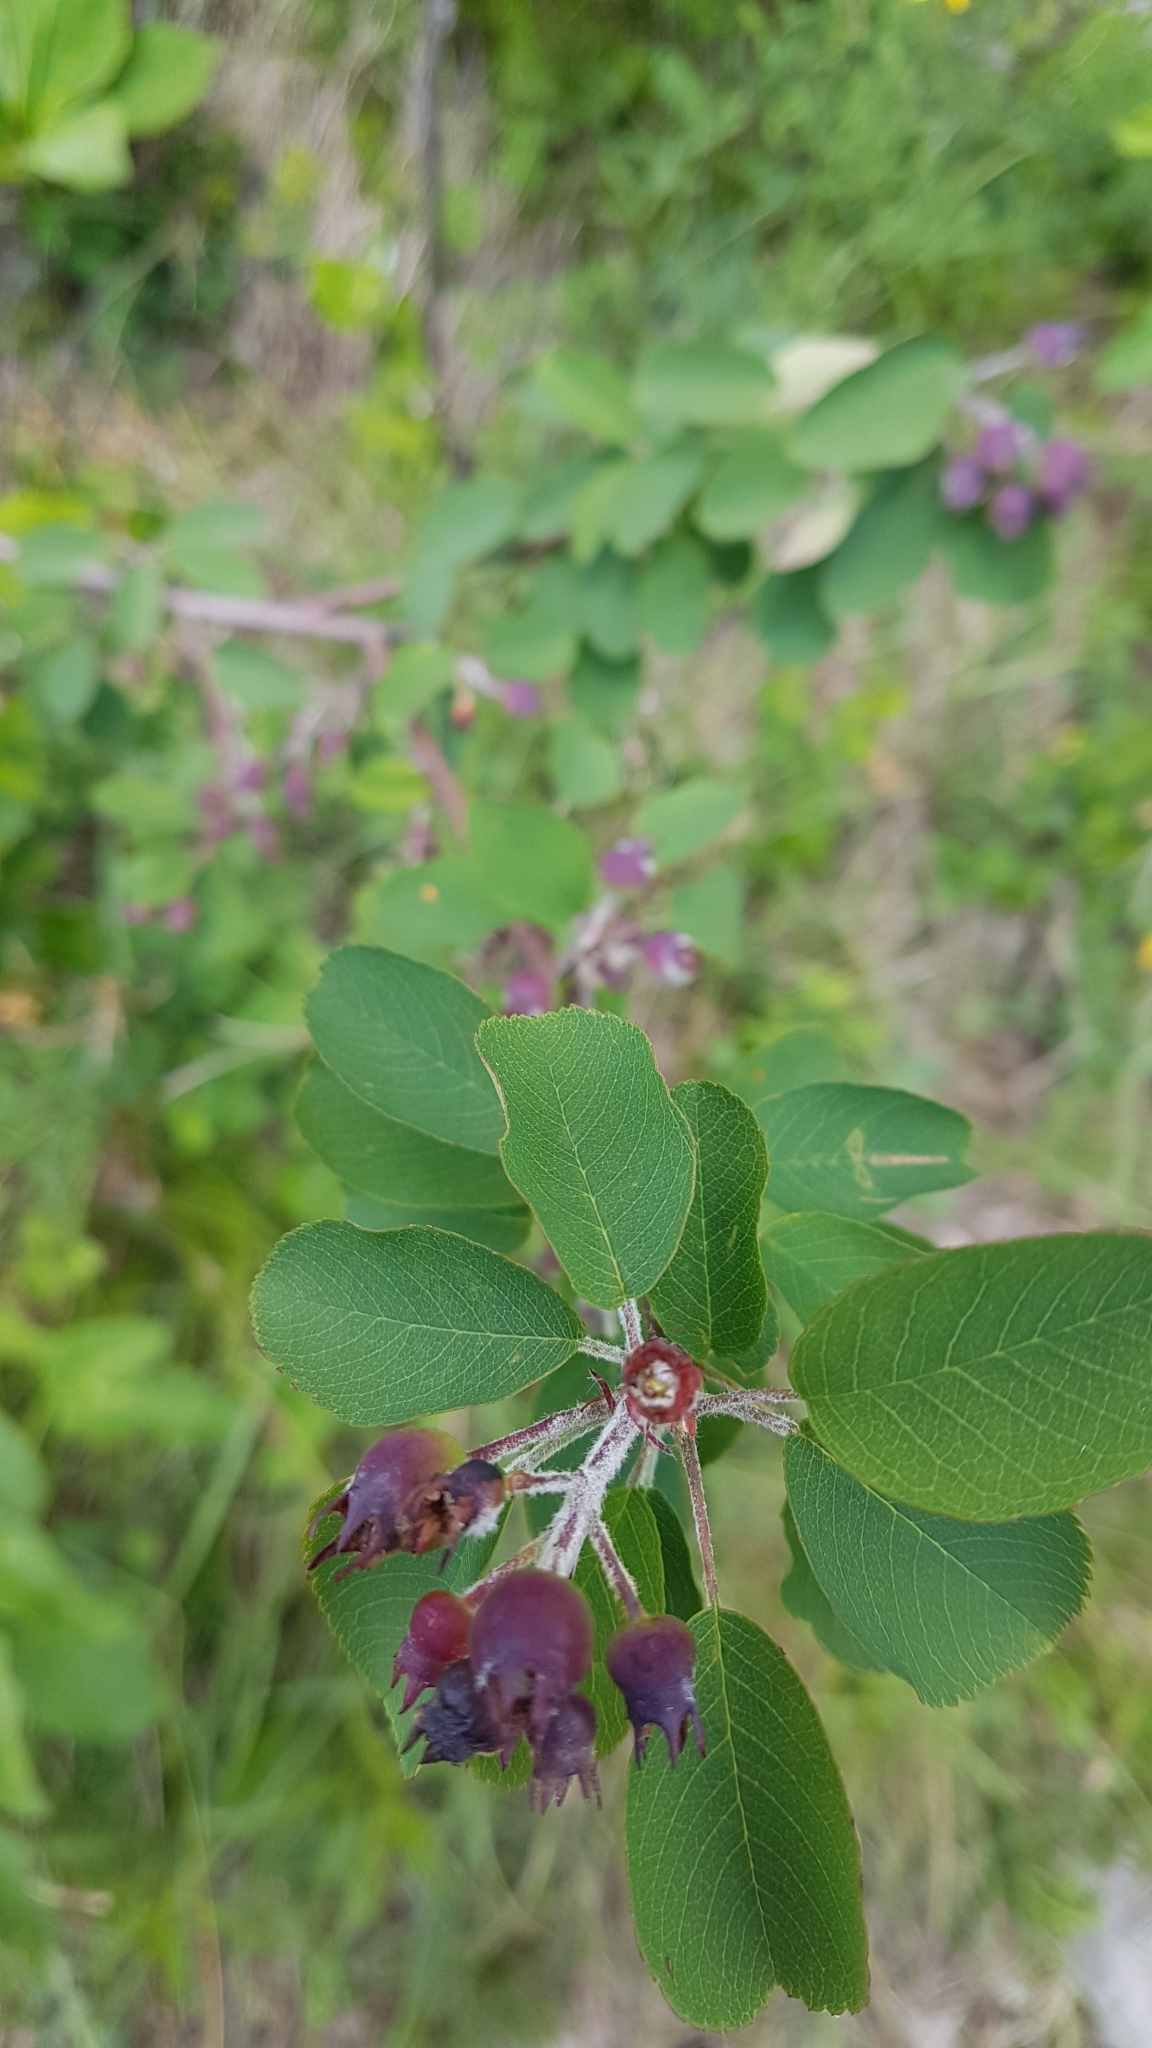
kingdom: Plantae
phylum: Tracheophyta
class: Magnoliopsida
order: Rosales
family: Rosaceae
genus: Amelanchier
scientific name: Amelanchier ovalis
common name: Serviceberry
